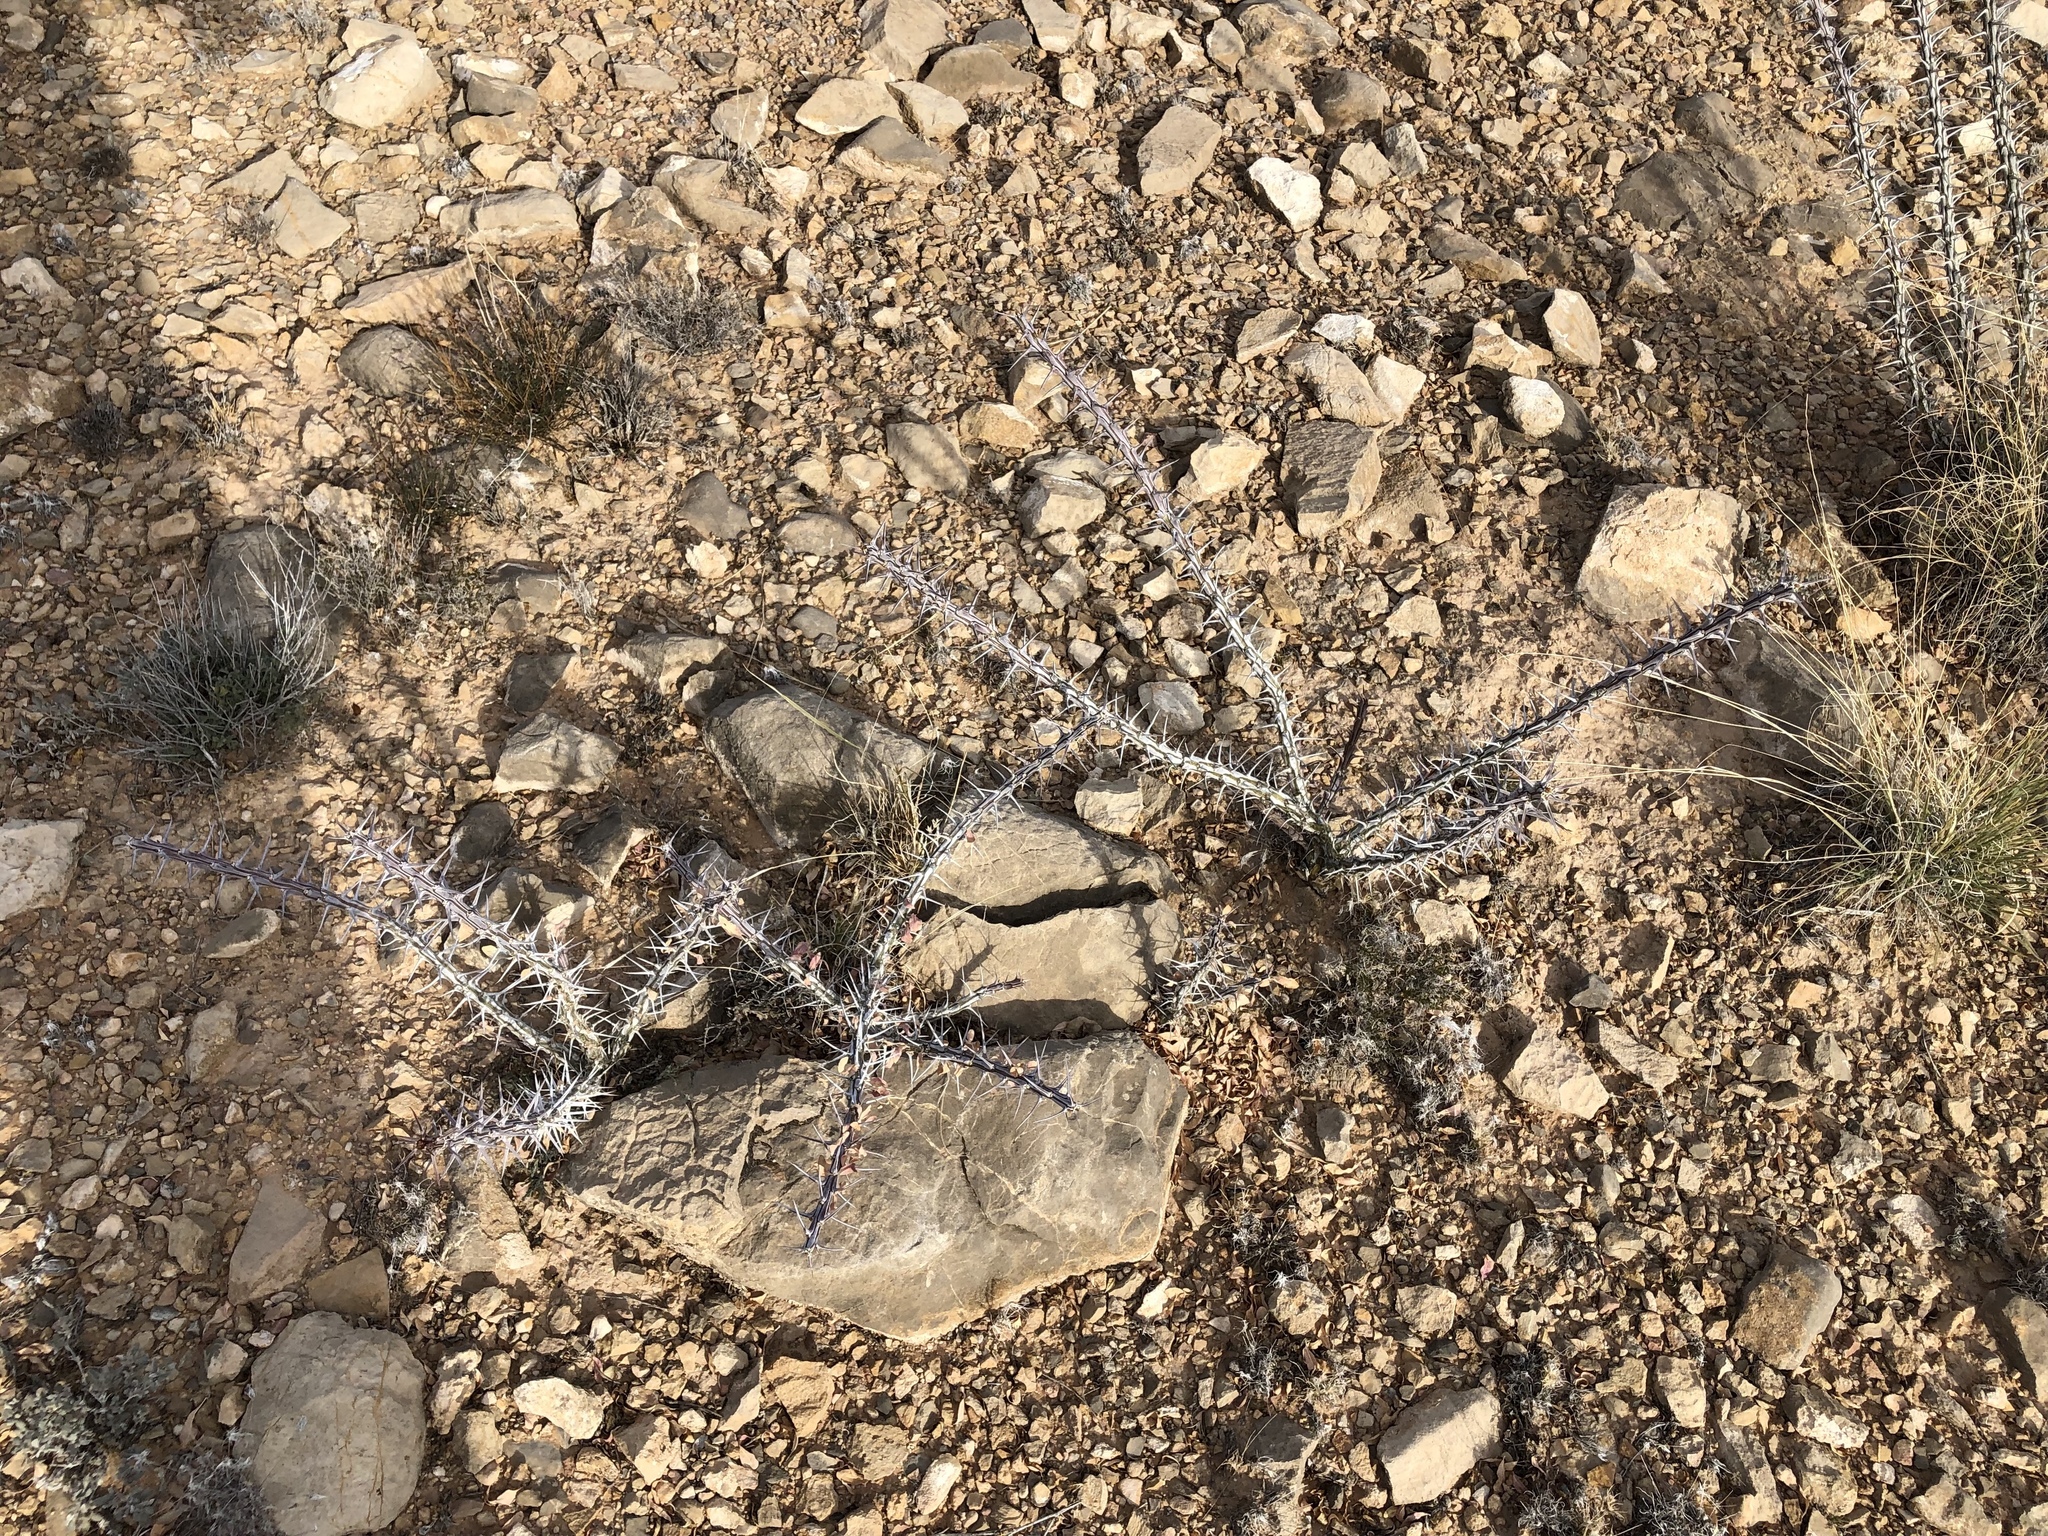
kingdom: Plantae
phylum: Tracheophyta
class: Magnoliopsida
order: Ericales
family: Fouquieriaceae
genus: Fouquieria
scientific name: Fouquieria splendens
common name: Vine-cactus
